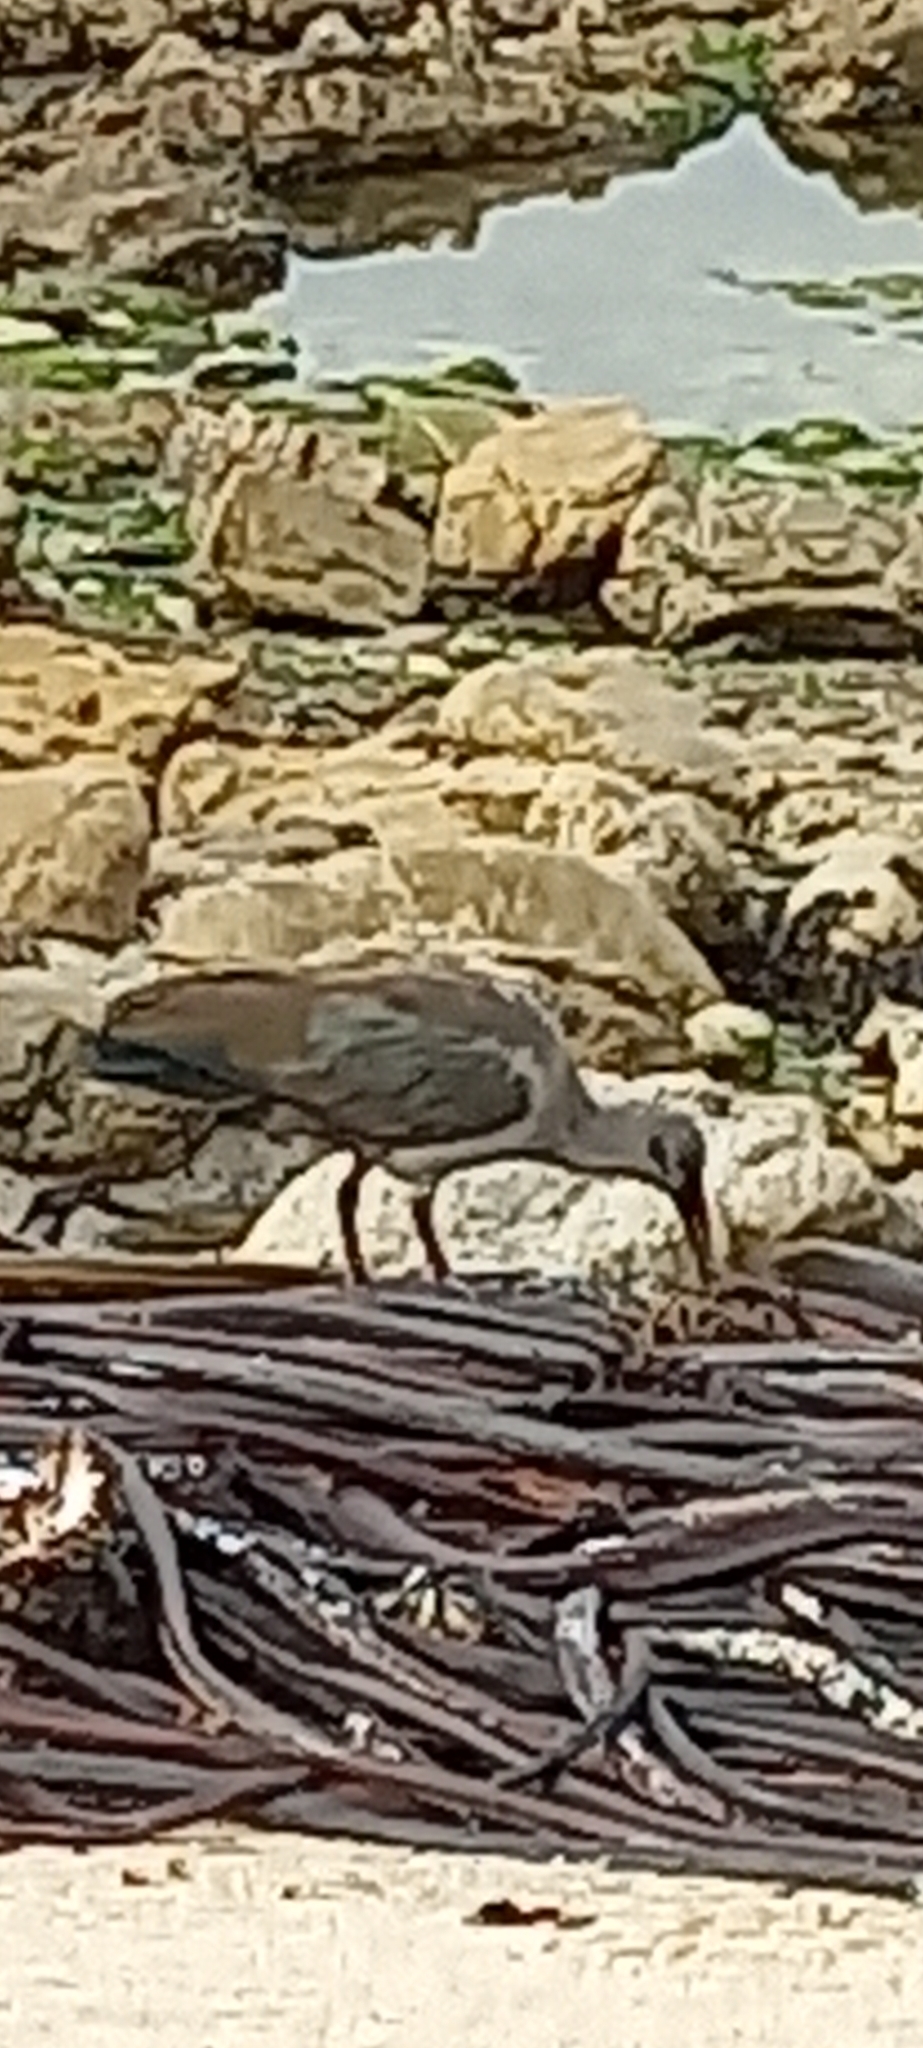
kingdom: Animalia
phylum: Chordata
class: Aves
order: Pelecaniformes
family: Threskiornithidae
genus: Bostrychia
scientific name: Bostrychia hagedash
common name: Hadada ibis
